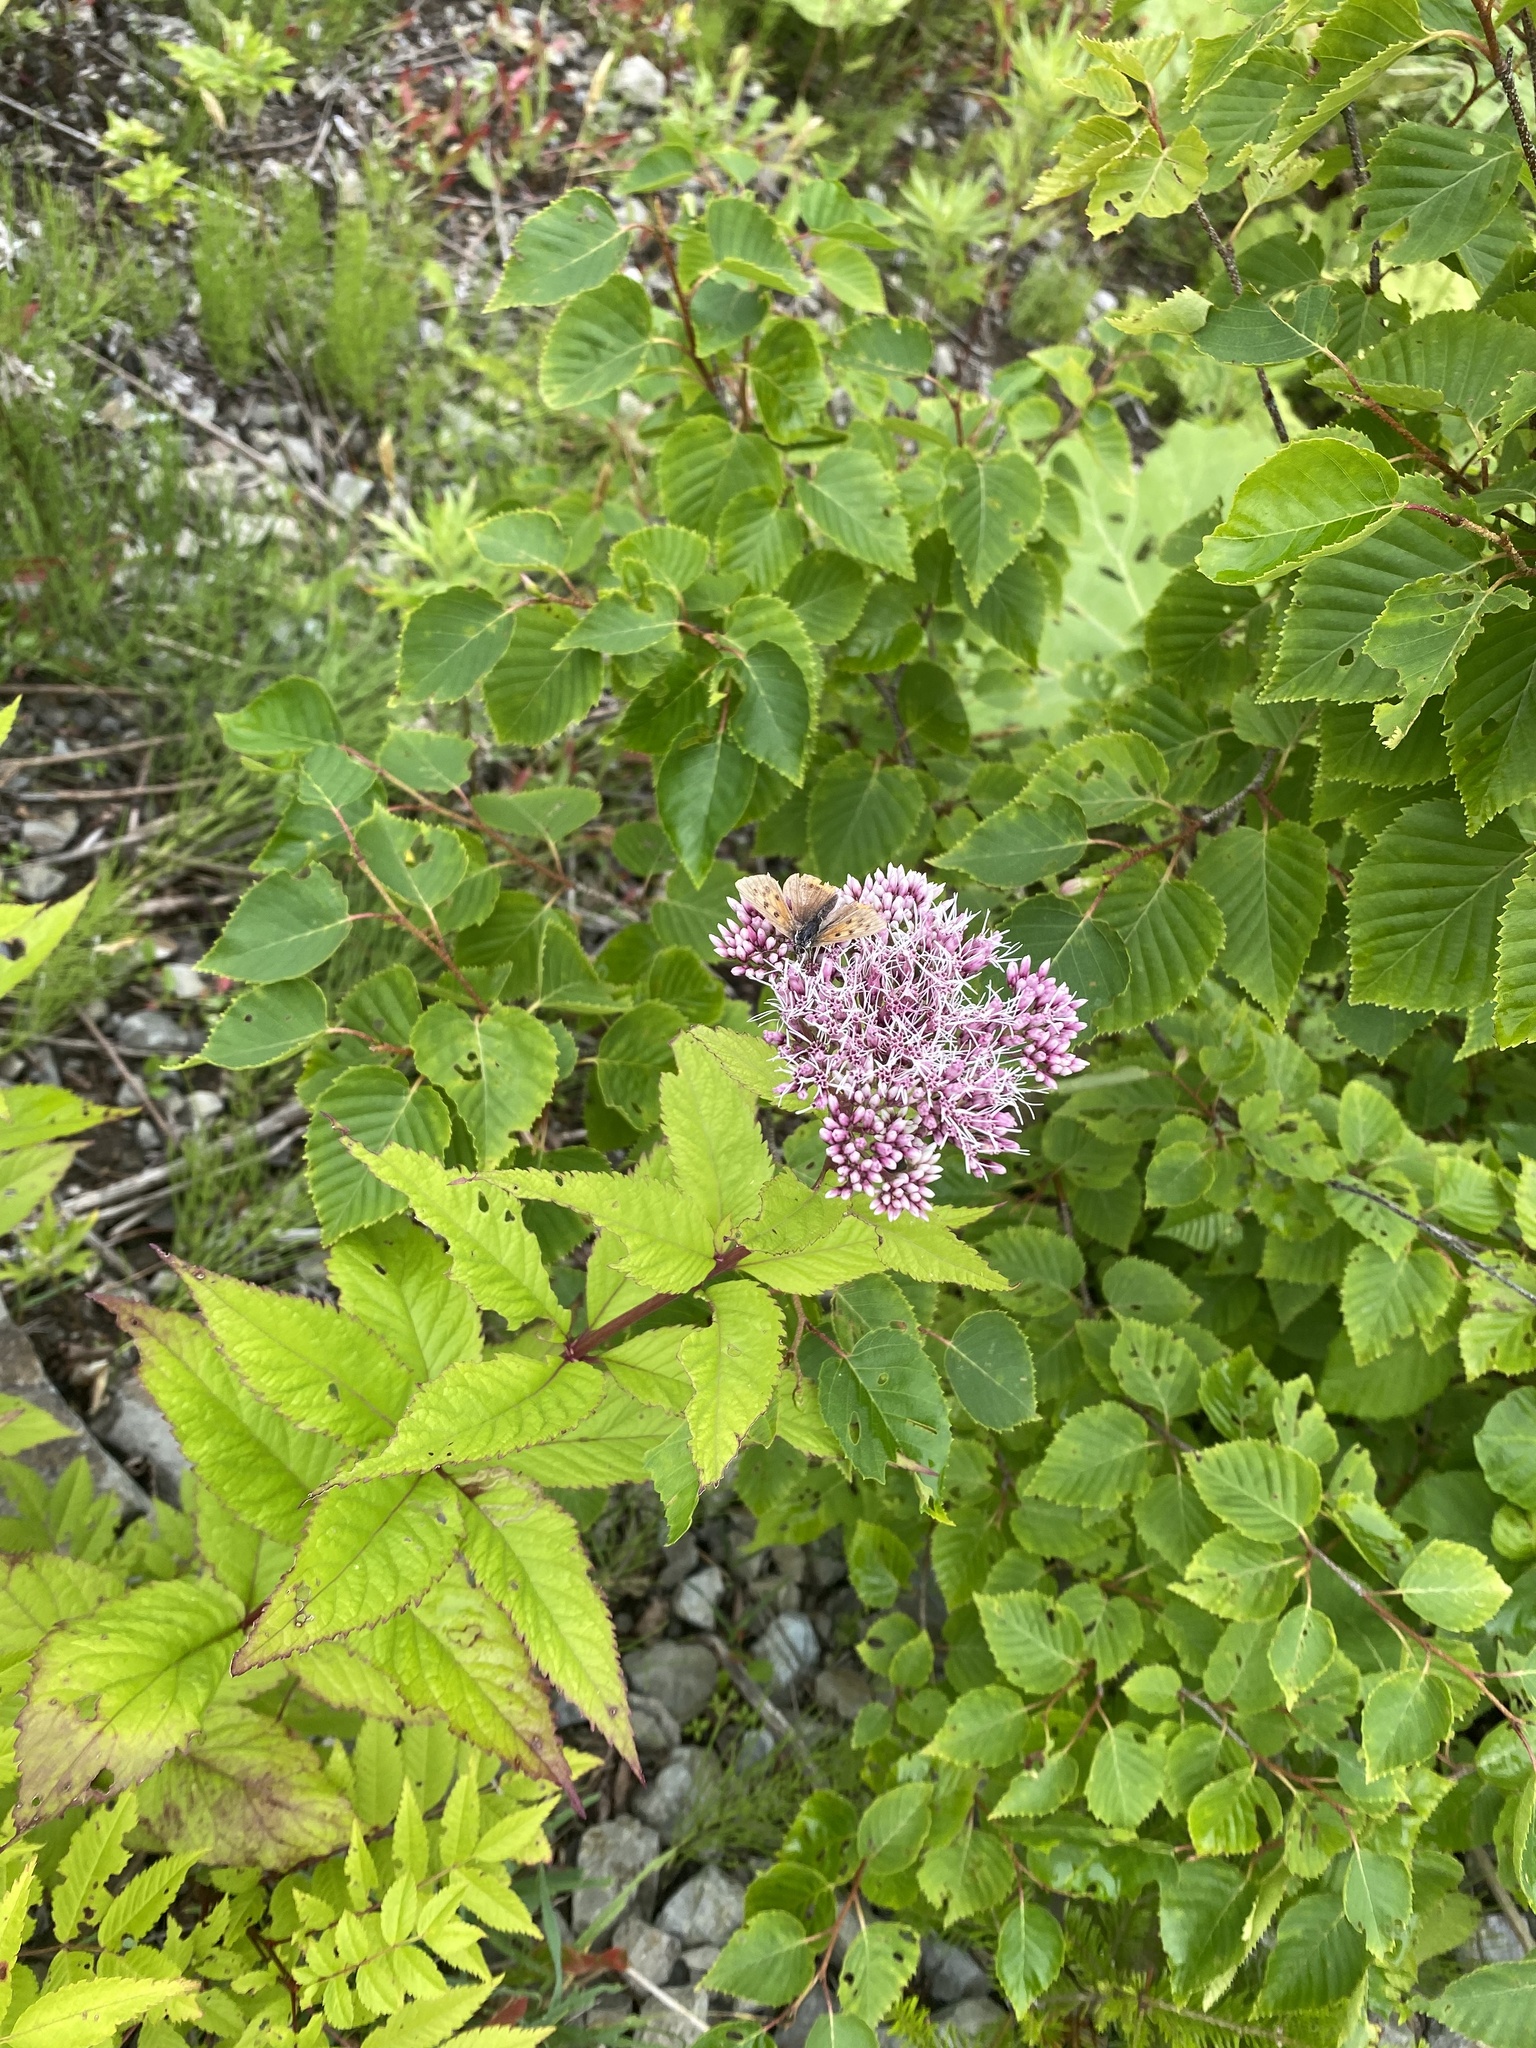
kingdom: Plantae
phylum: Tracheophyta
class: Magnoliopsida
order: Asterales
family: Asteraceae
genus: Eupatorium
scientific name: Eupatorium glehnii
